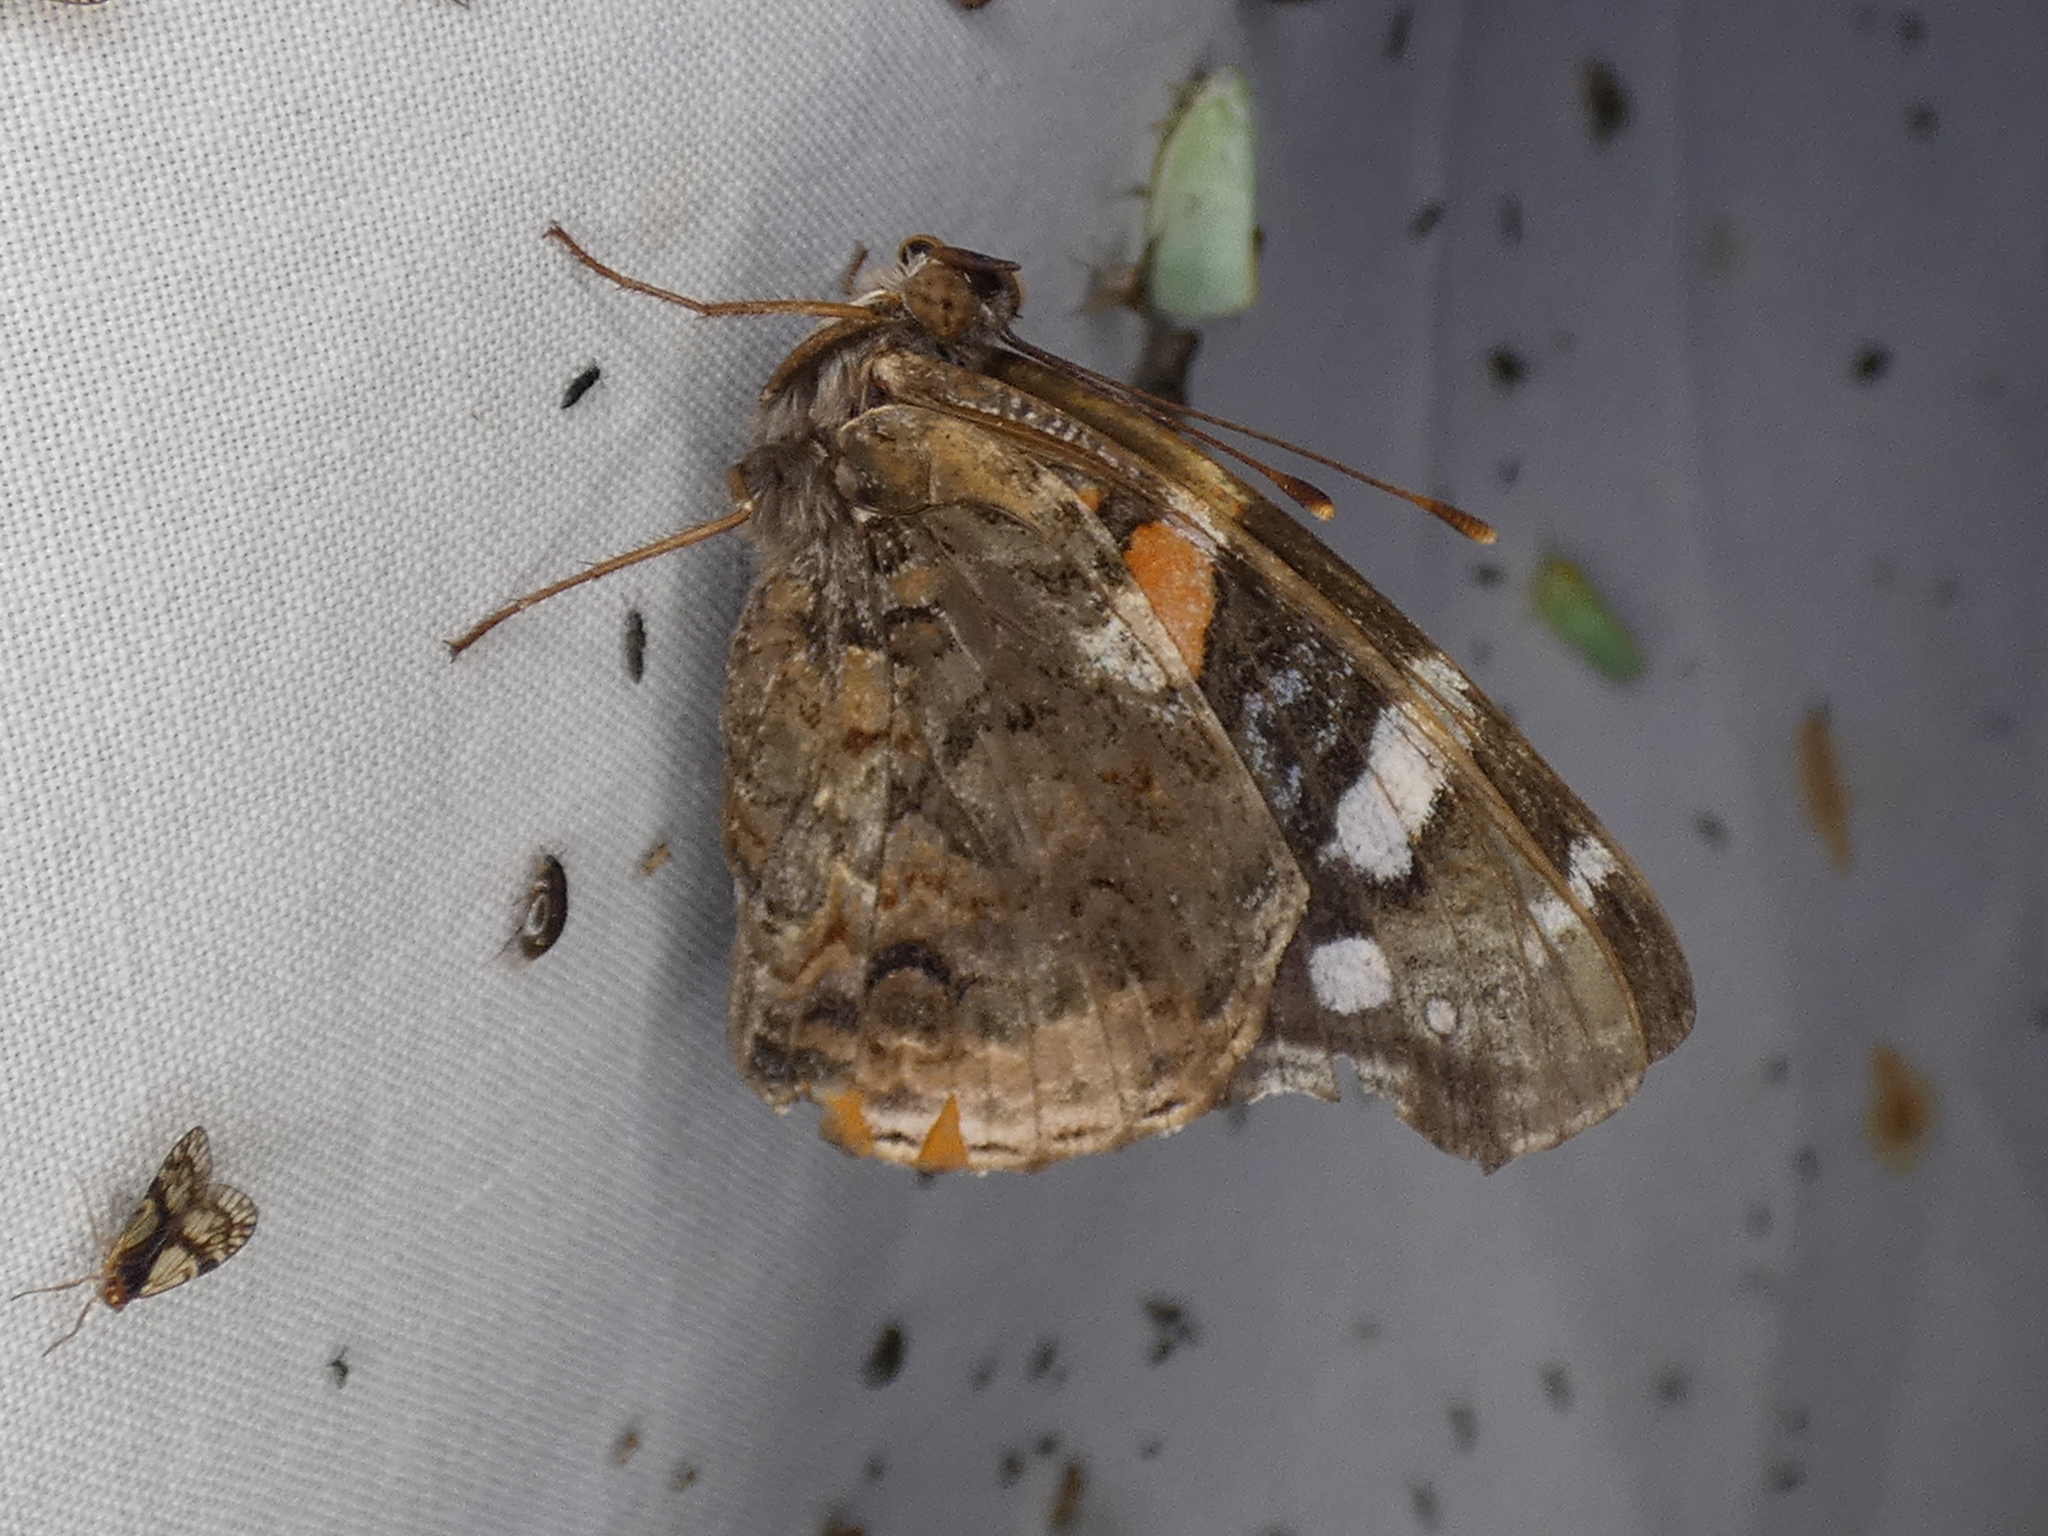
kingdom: Animalia
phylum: Arthropoda
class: Insecta
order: Lepidoptera
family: Nymphalidae
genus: Vanessa
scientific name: Vanessa atalanta
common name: Red admiral
